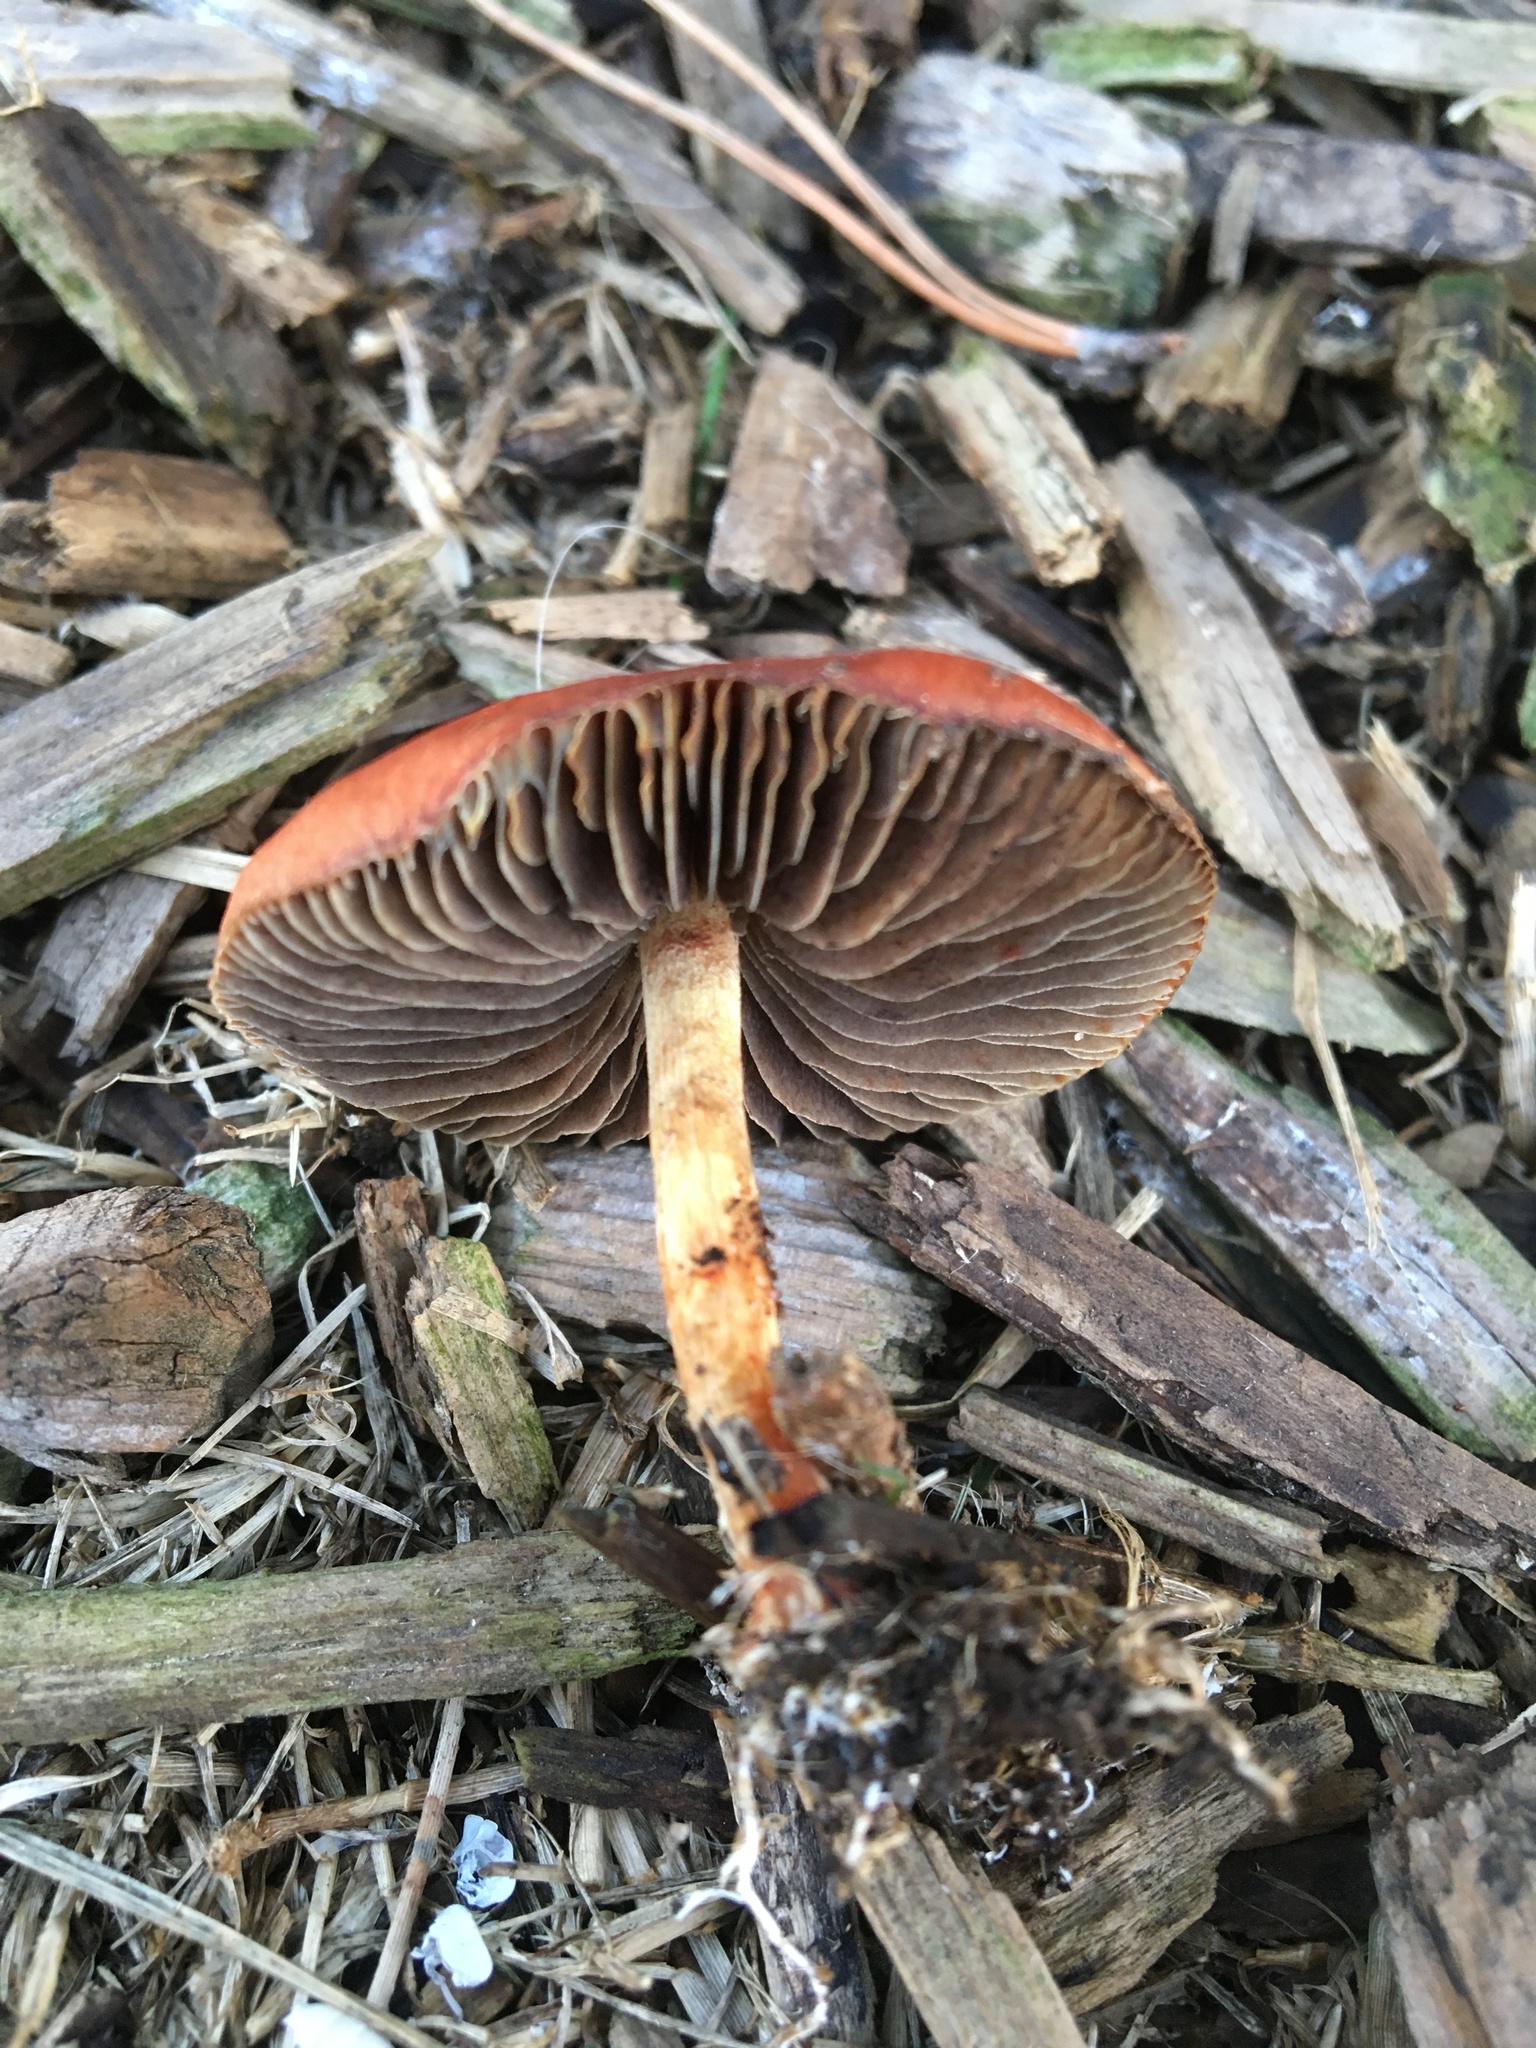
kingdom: Fungi
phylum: Basidiomycota
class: Agaricomycetes
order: Agaricales
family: Strophariaceae
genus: Leratiomyces
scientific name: Leratiomyces ceres
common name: Redlead roundhead
